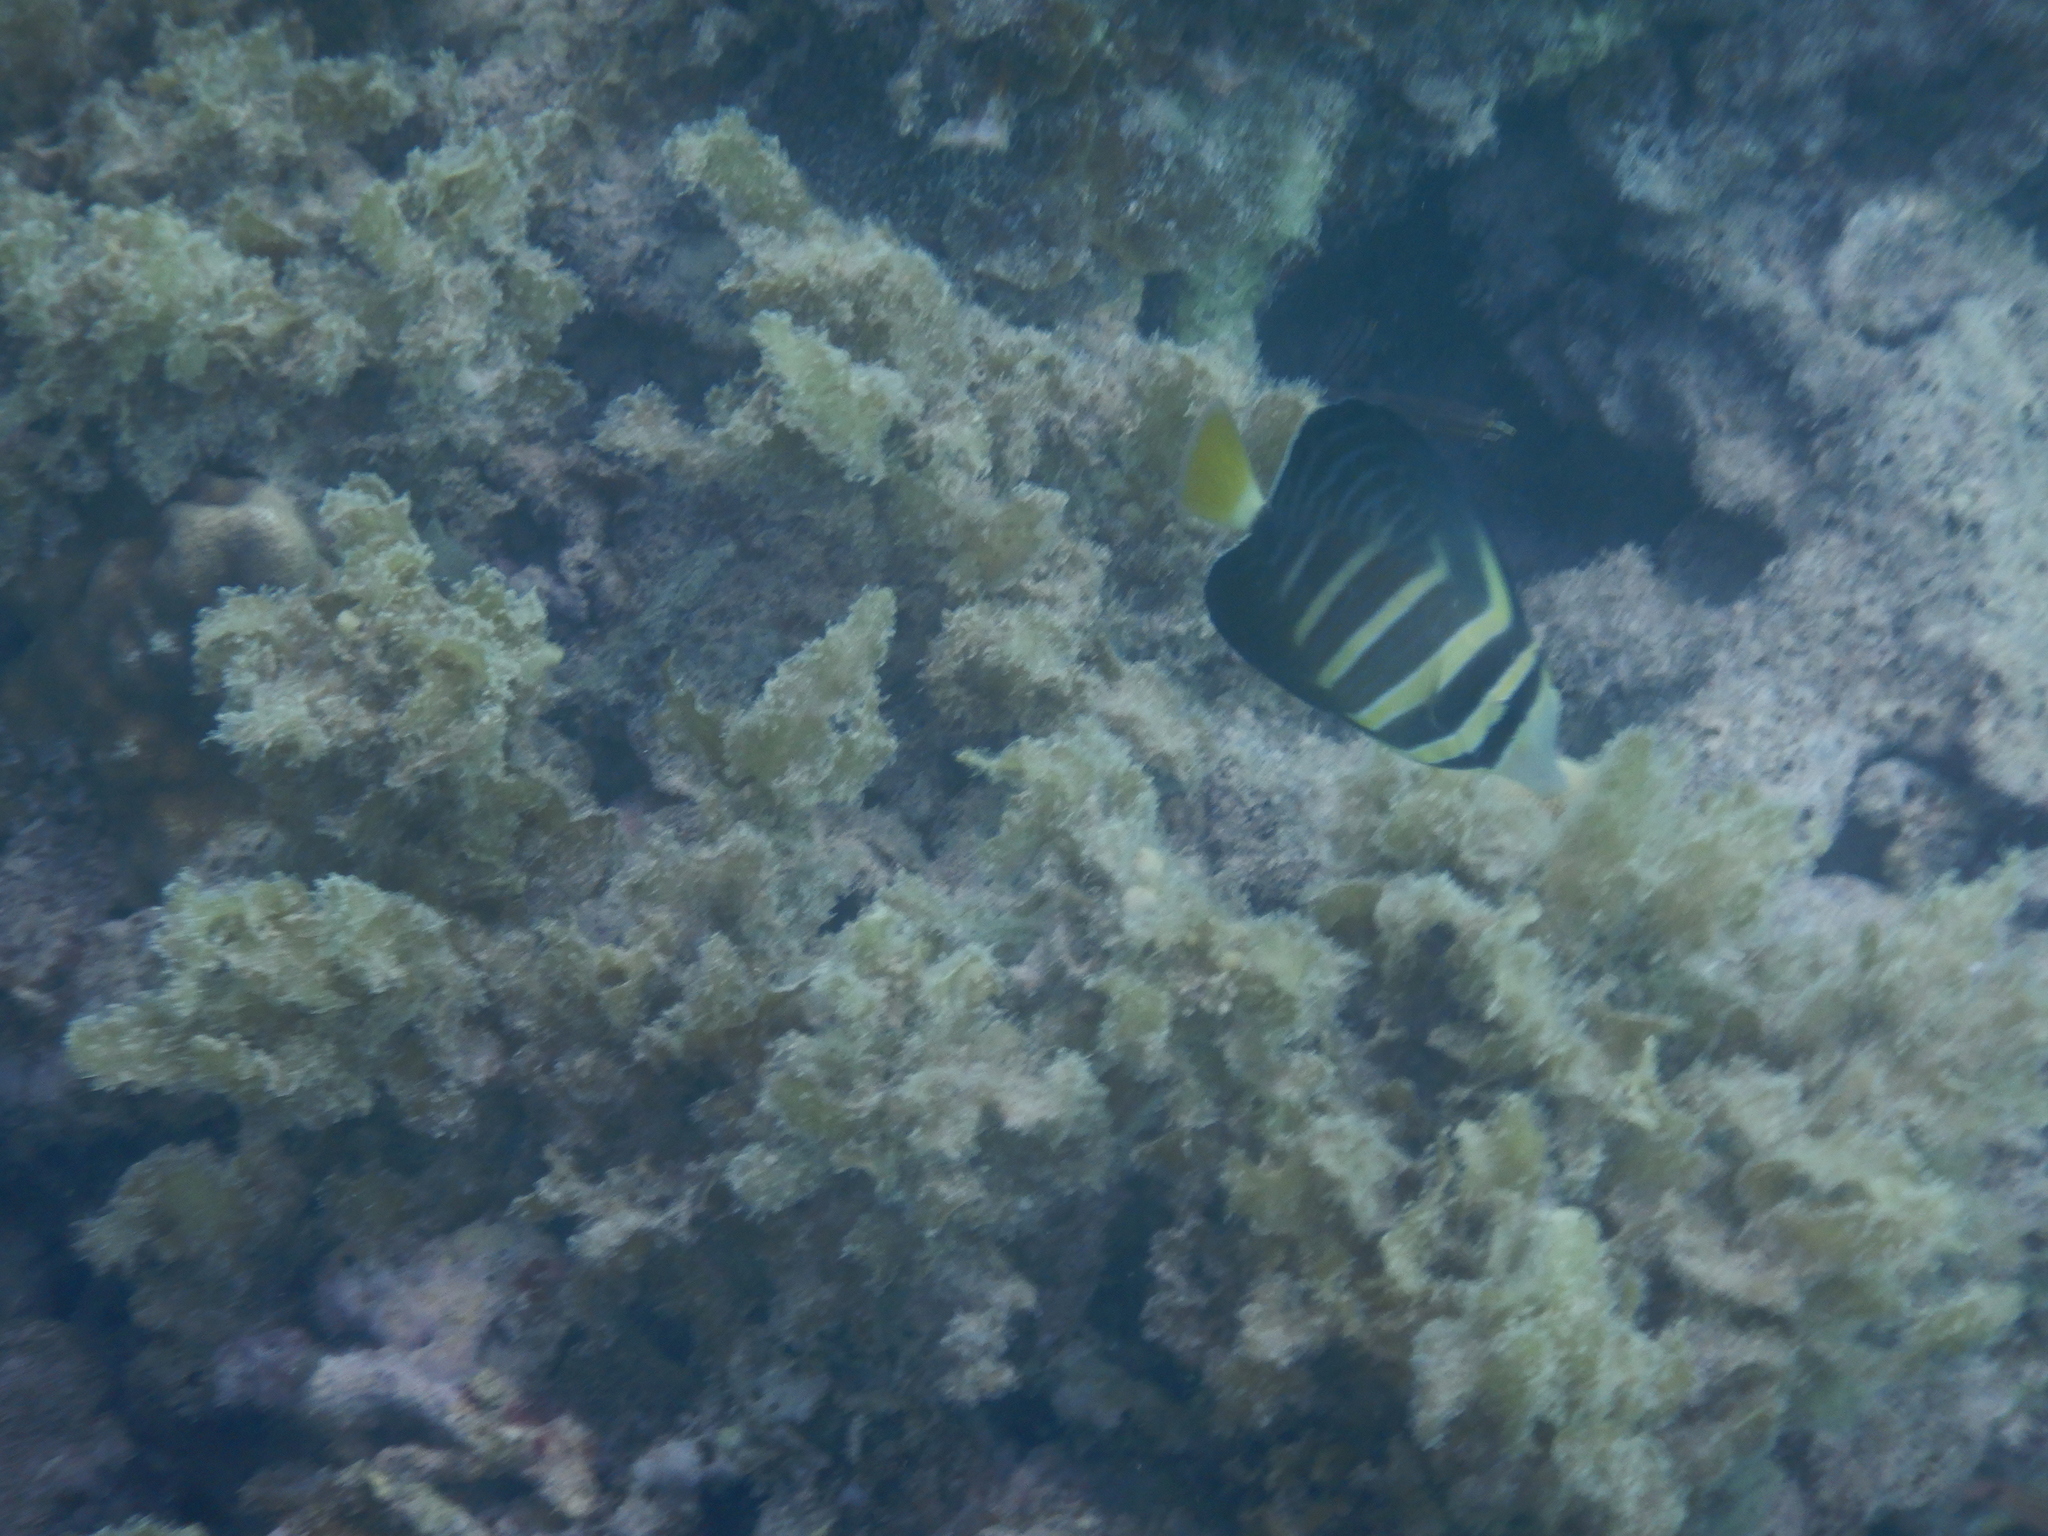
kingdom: Animalia
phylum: Chordata
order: Perciformes
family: Acanthuridae
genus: Zebrasoma
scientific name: Zebrasoma veliferum
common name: Sailfin surgeonfish
